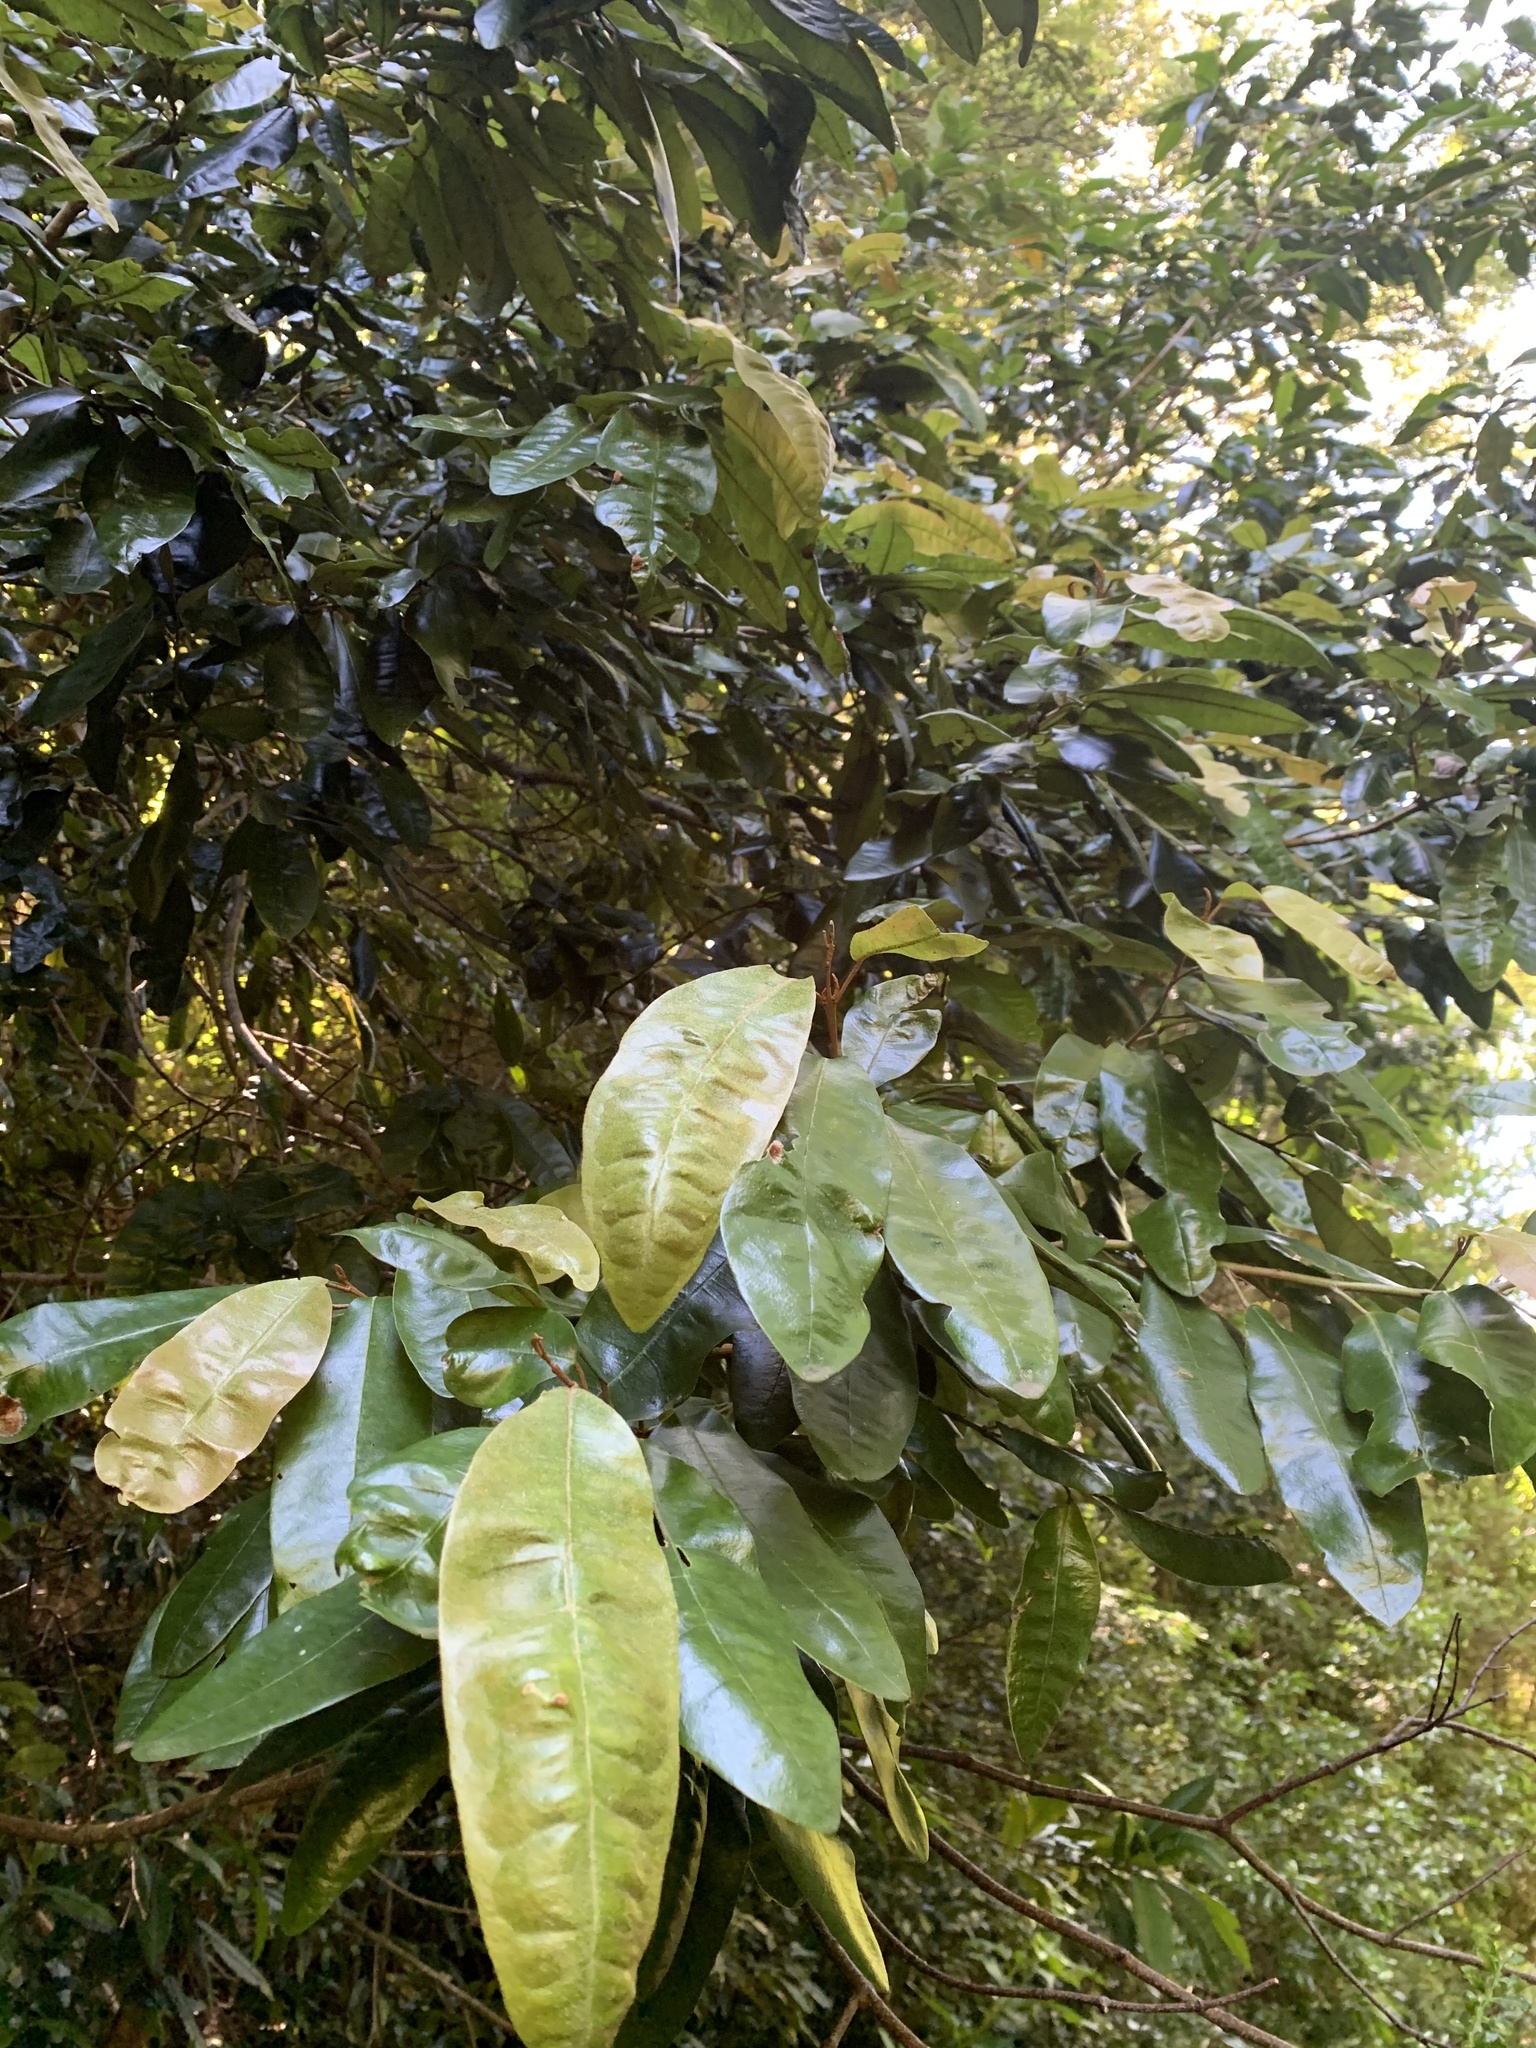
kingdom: Plantae
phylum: Tracheophyta
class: Magnoliopsida
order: Berberidopsidales
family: Aextoxicaceae
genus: Aextoxicon
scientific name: Aextoxicon punctatum
